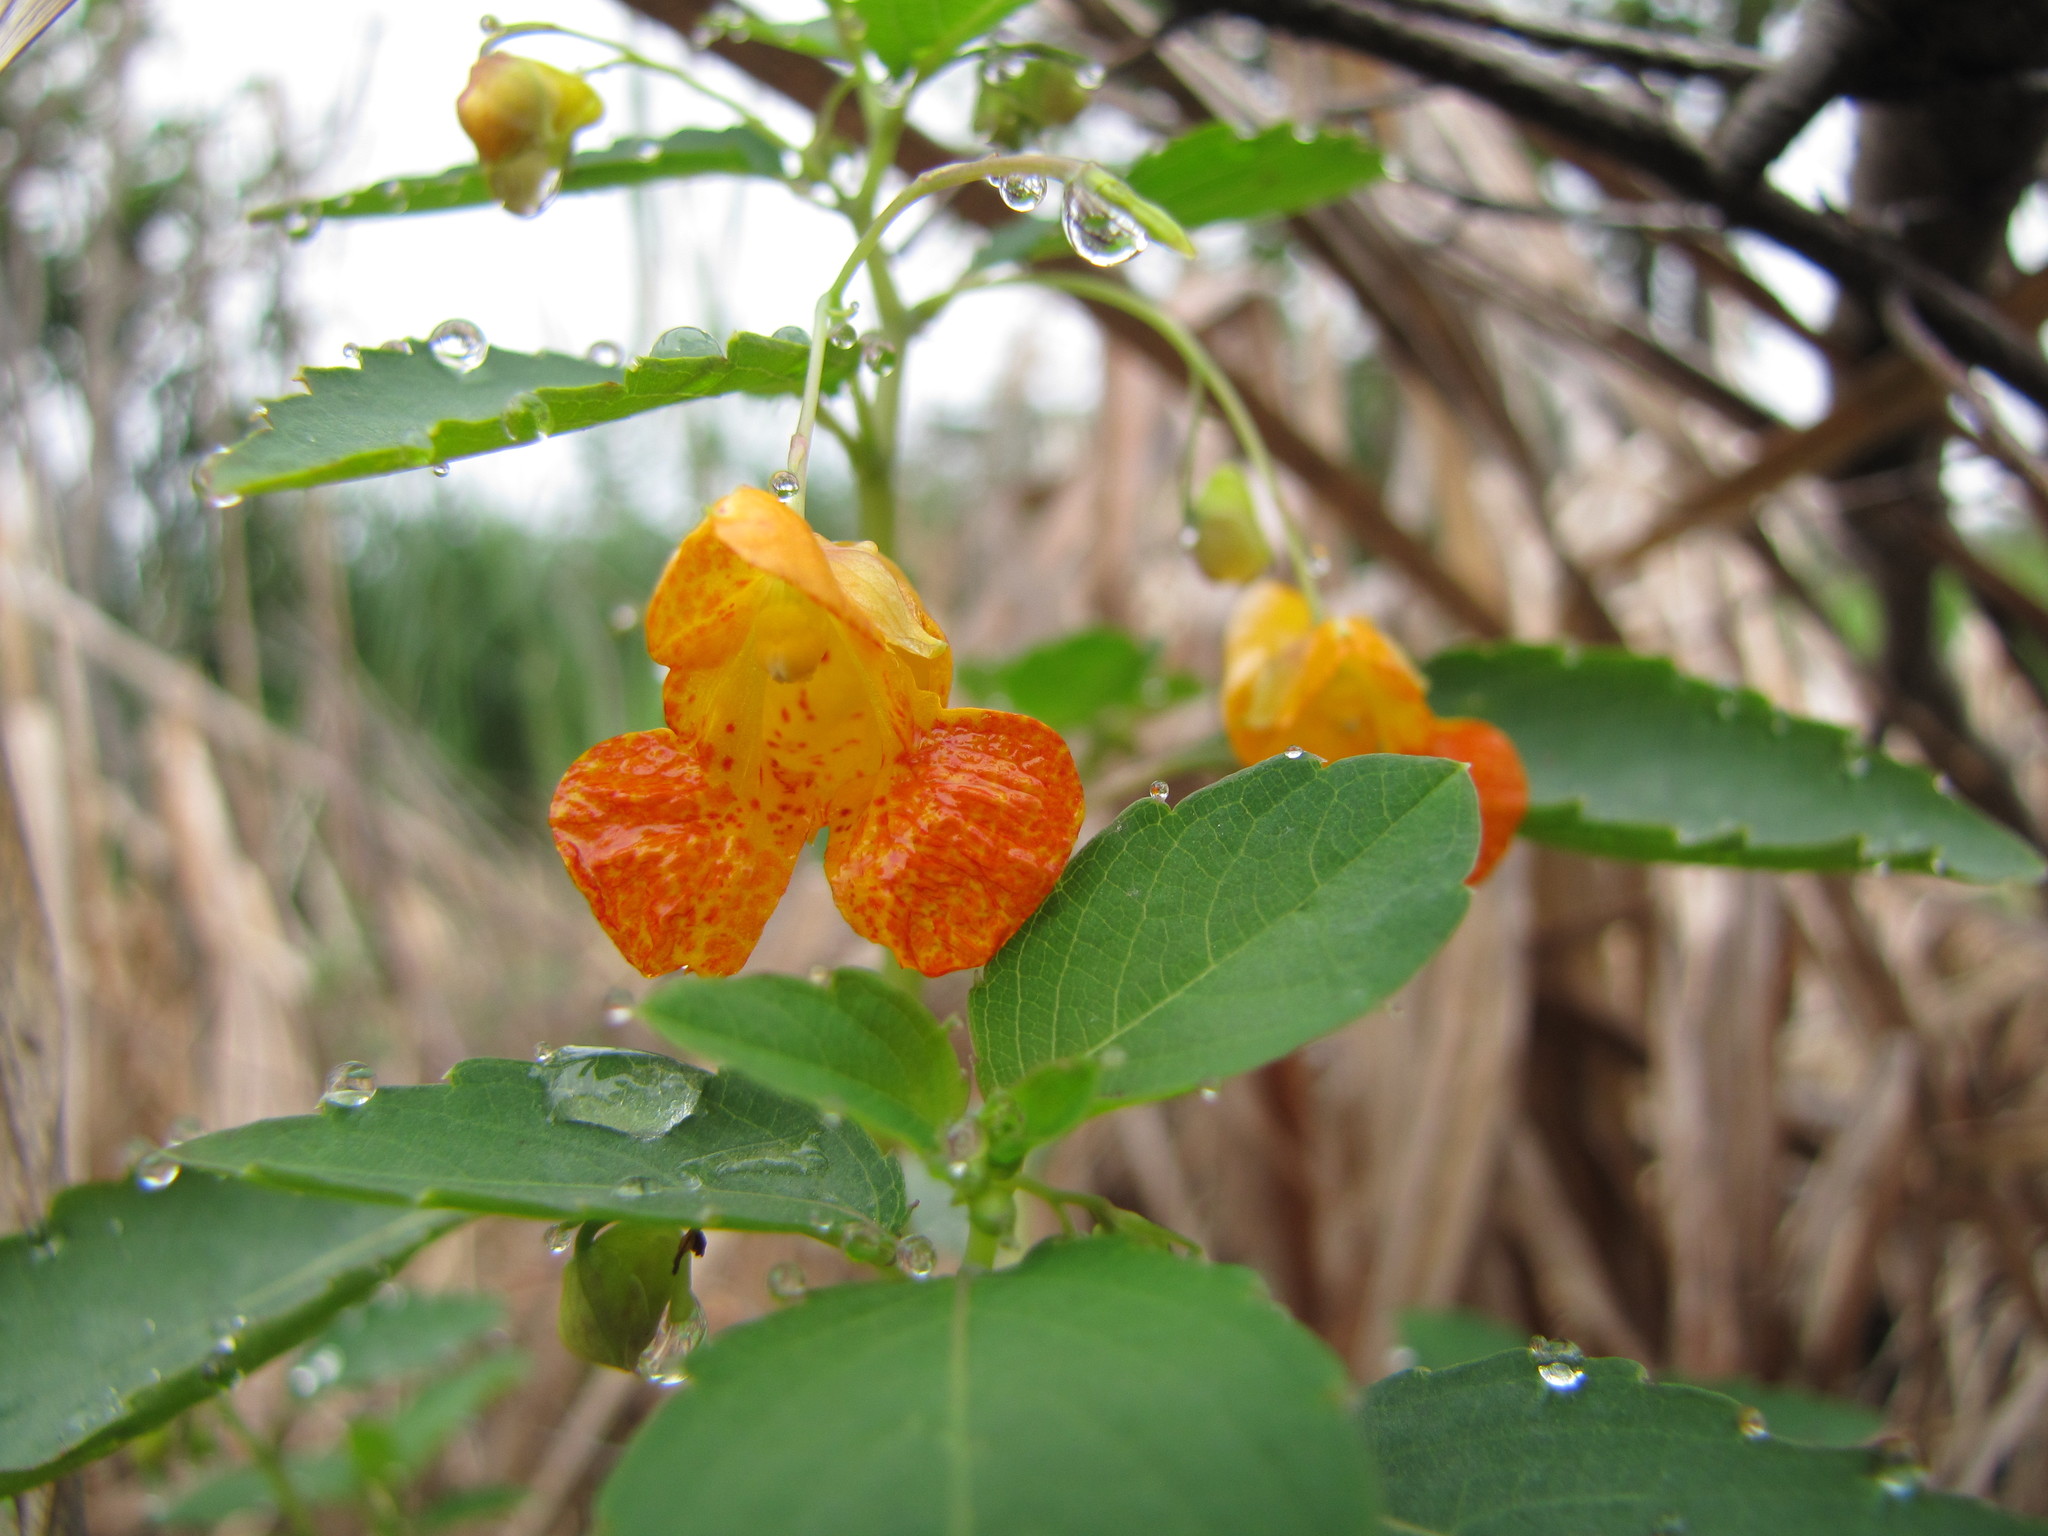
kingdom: Plantae
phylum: Tracheophyta
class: Magnoliopsida
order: Ericales
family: Balsaminaceae
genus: Impatiens
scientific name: Impatiens capensis
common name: Orange balsam
